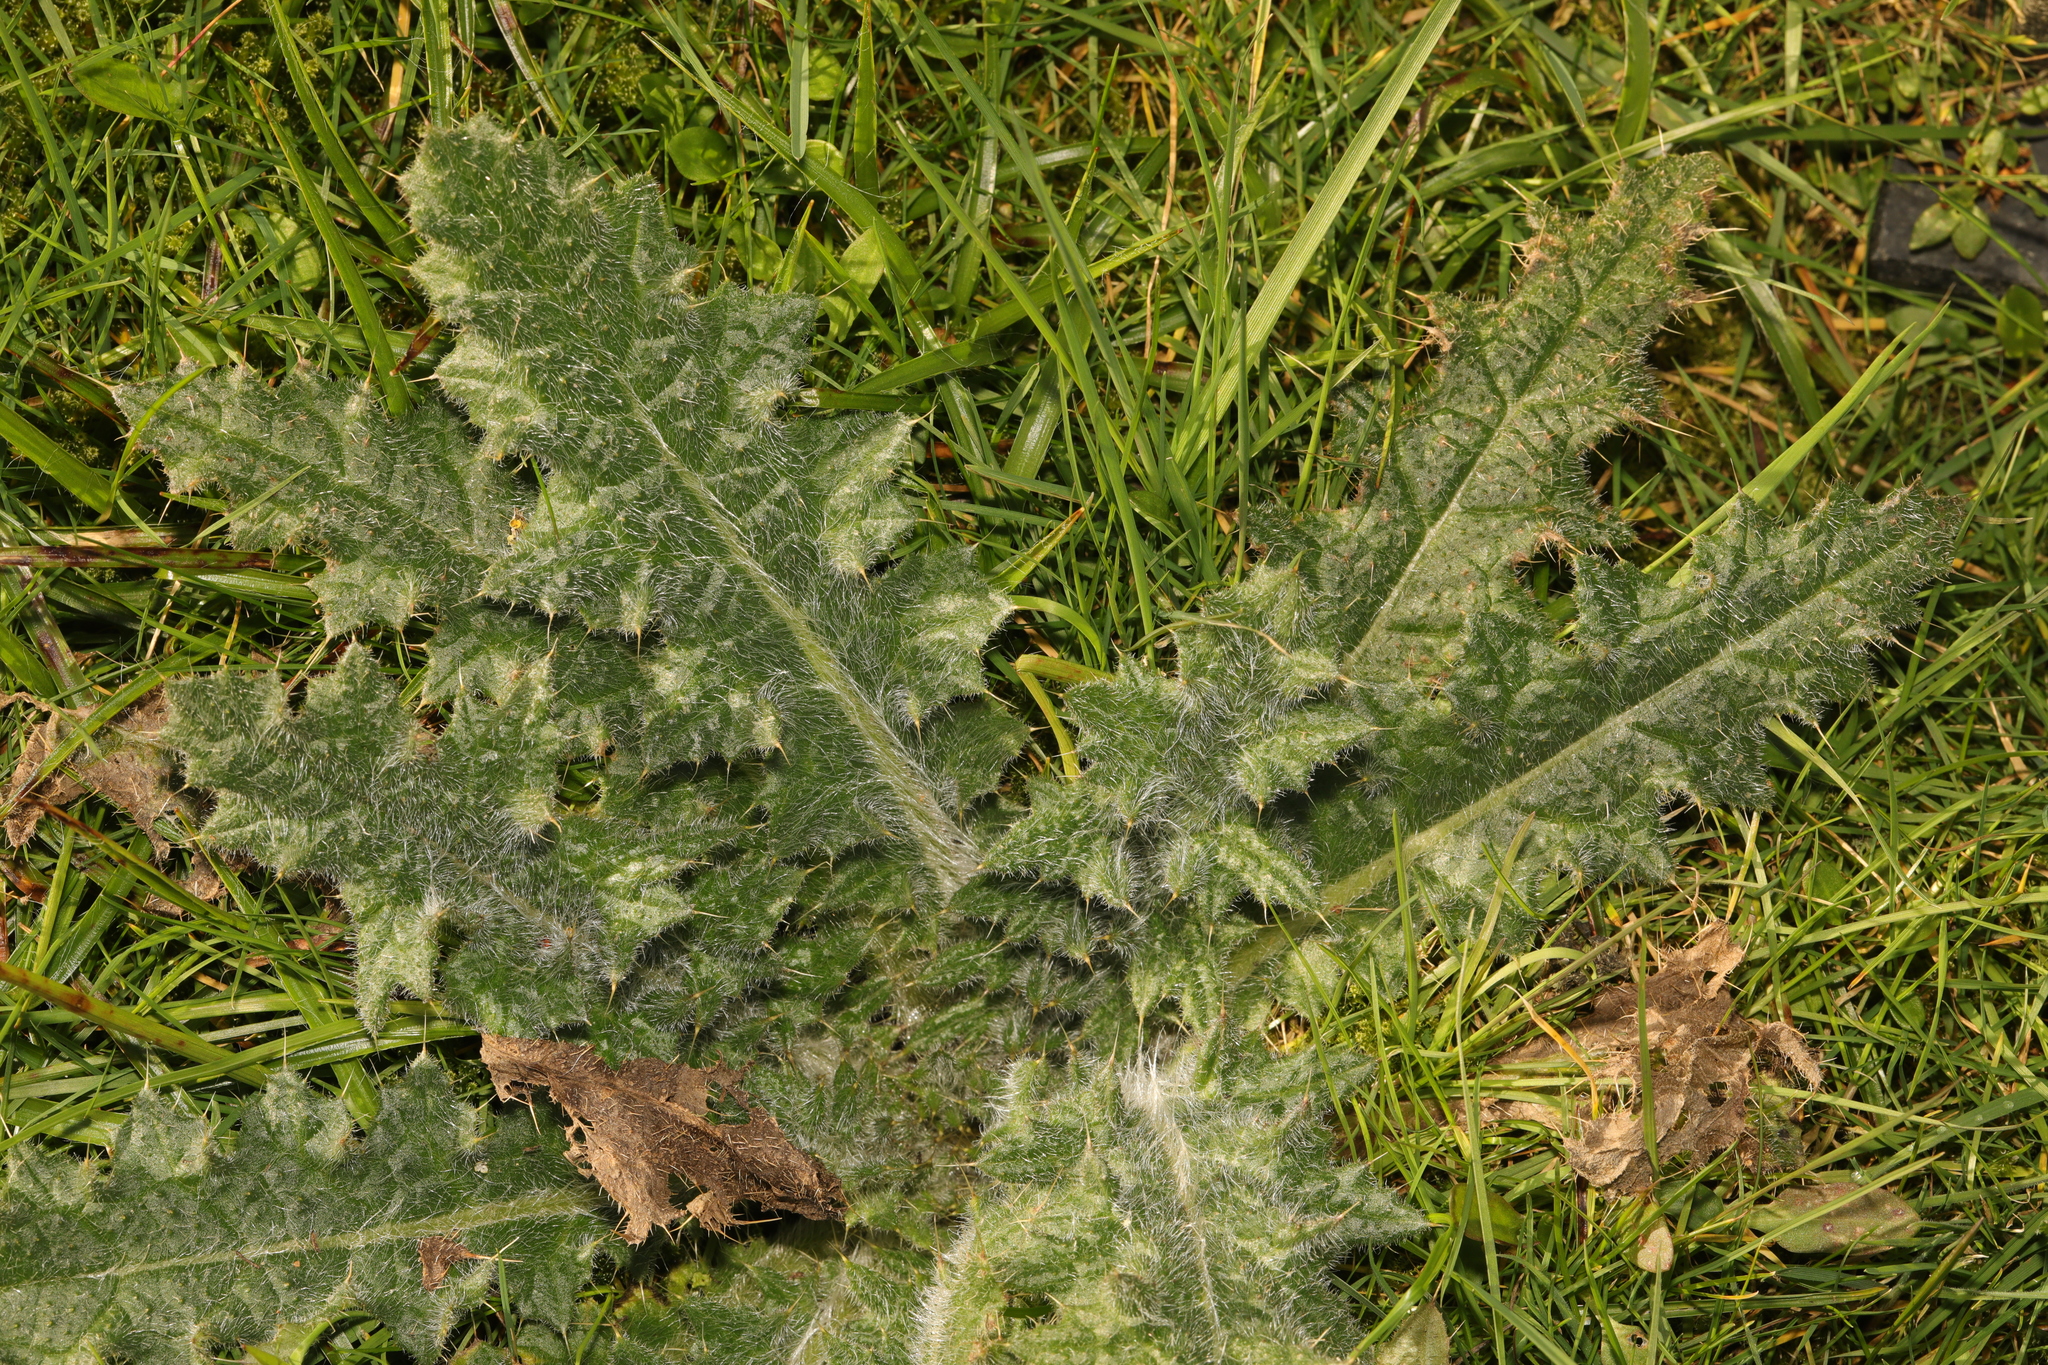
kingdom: Plantae
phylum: Tracheophyta
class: Magnoliopsida
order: Asterales
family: Asteraceae
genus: Cirsium
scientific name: Cirsium vulgare
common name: Bull thistle
